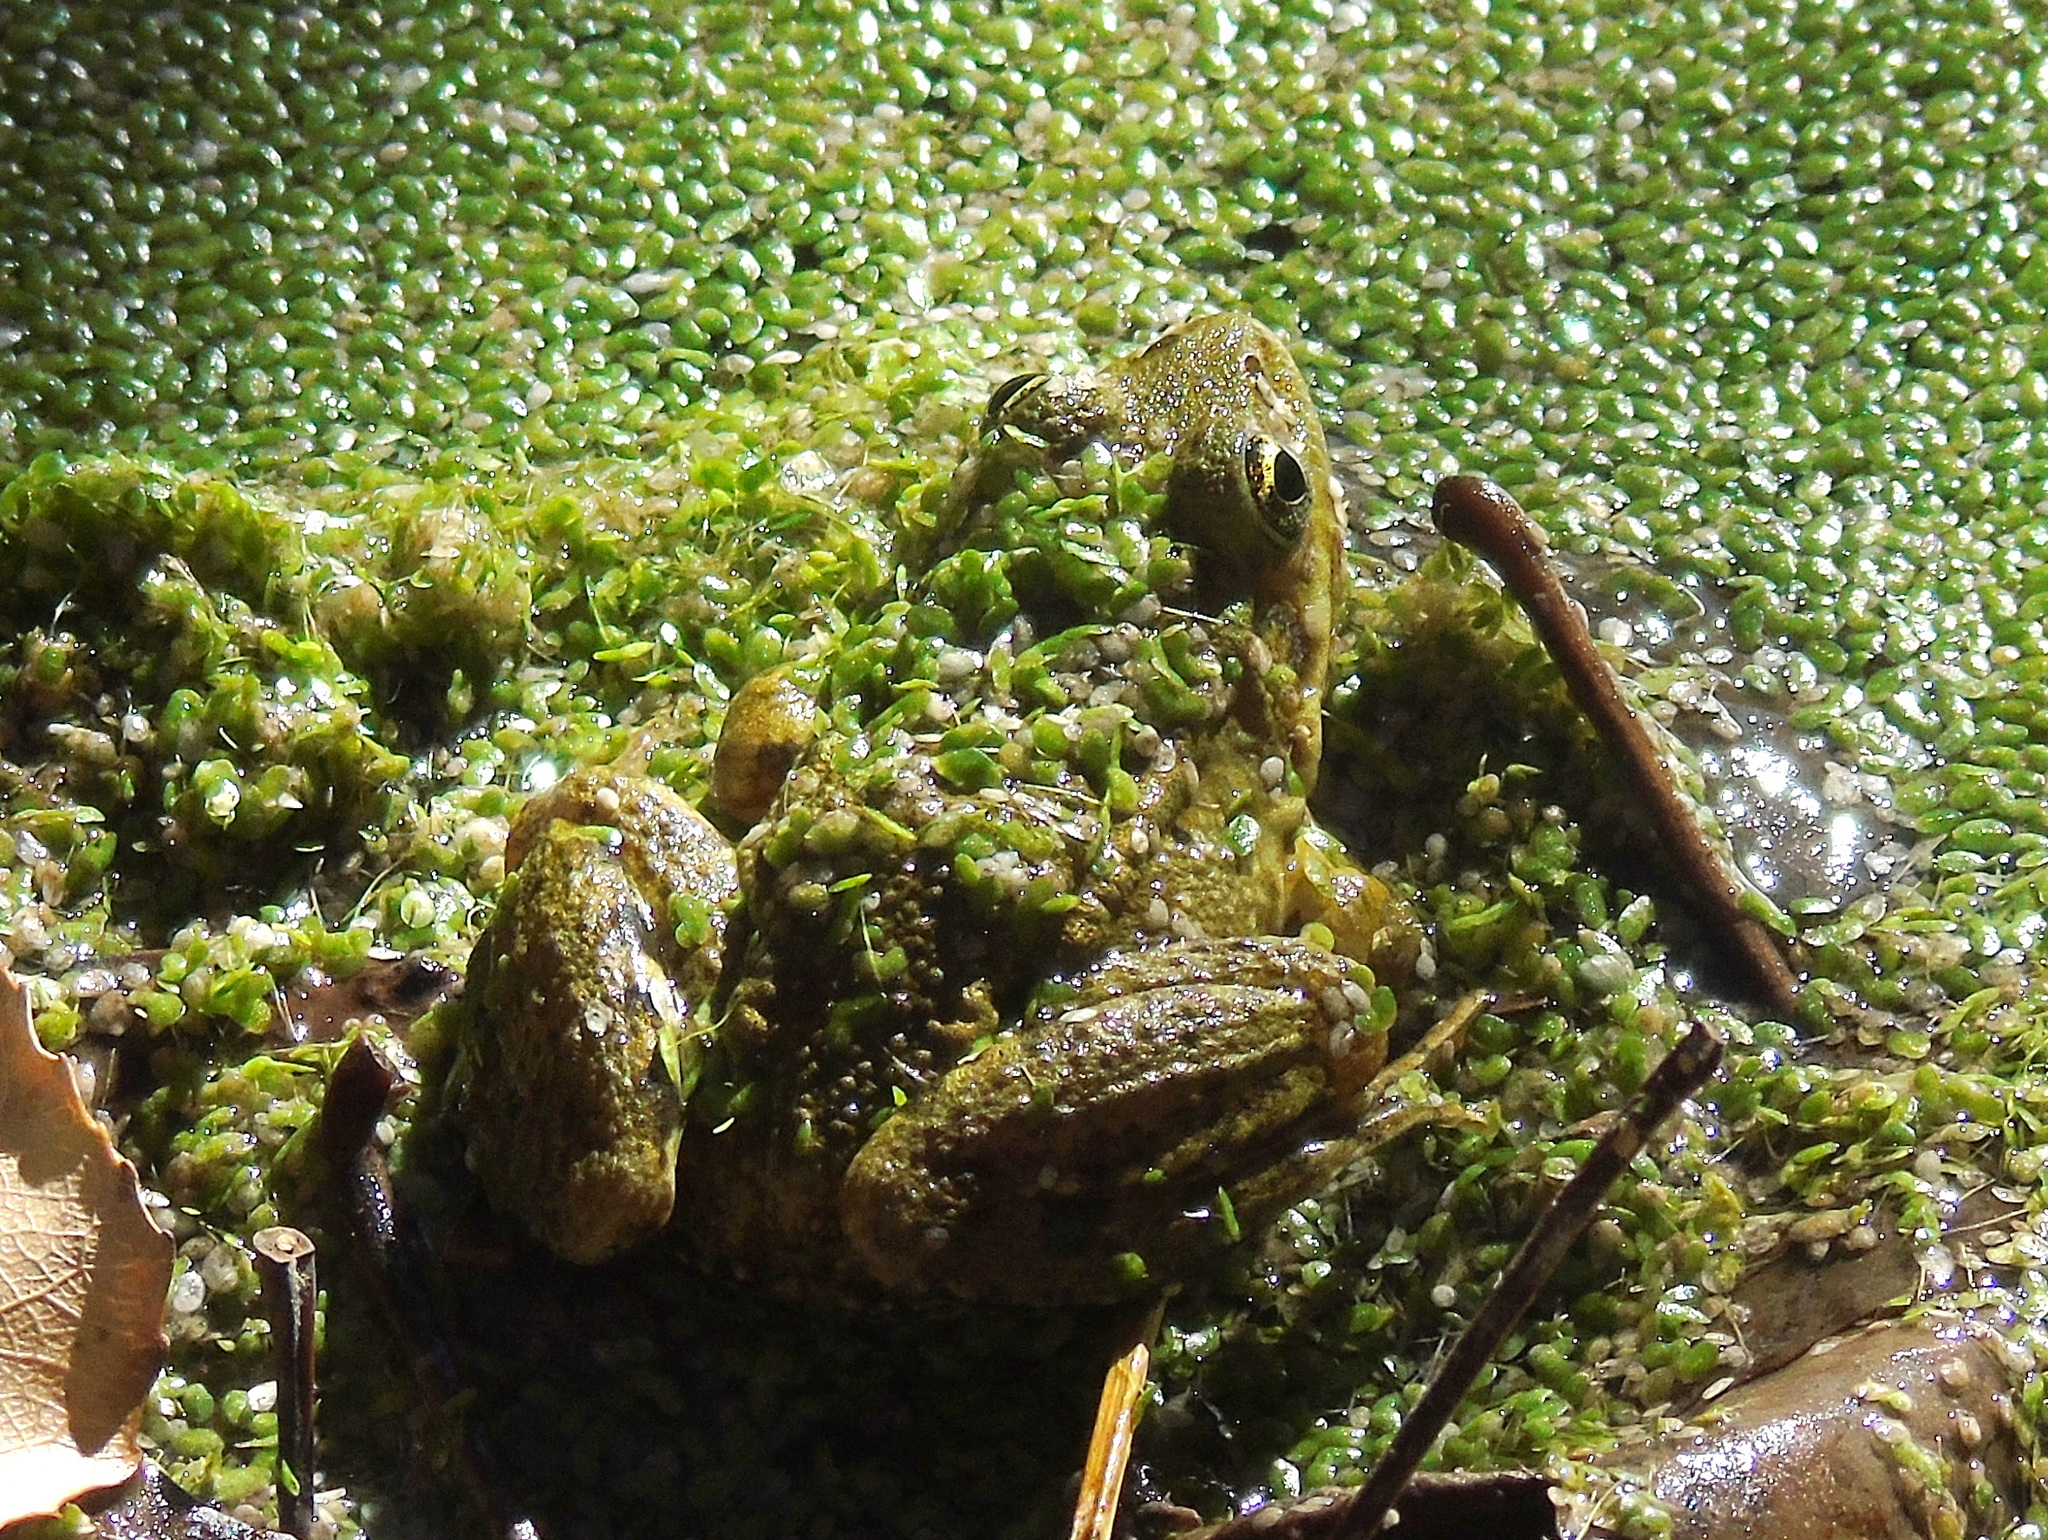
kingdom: Animalia
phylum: Chordata
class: Amphibia
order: Anura
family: Ranidae
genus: Pelophylax
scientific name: Pelophylax ridibundus
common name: Marsh frog
